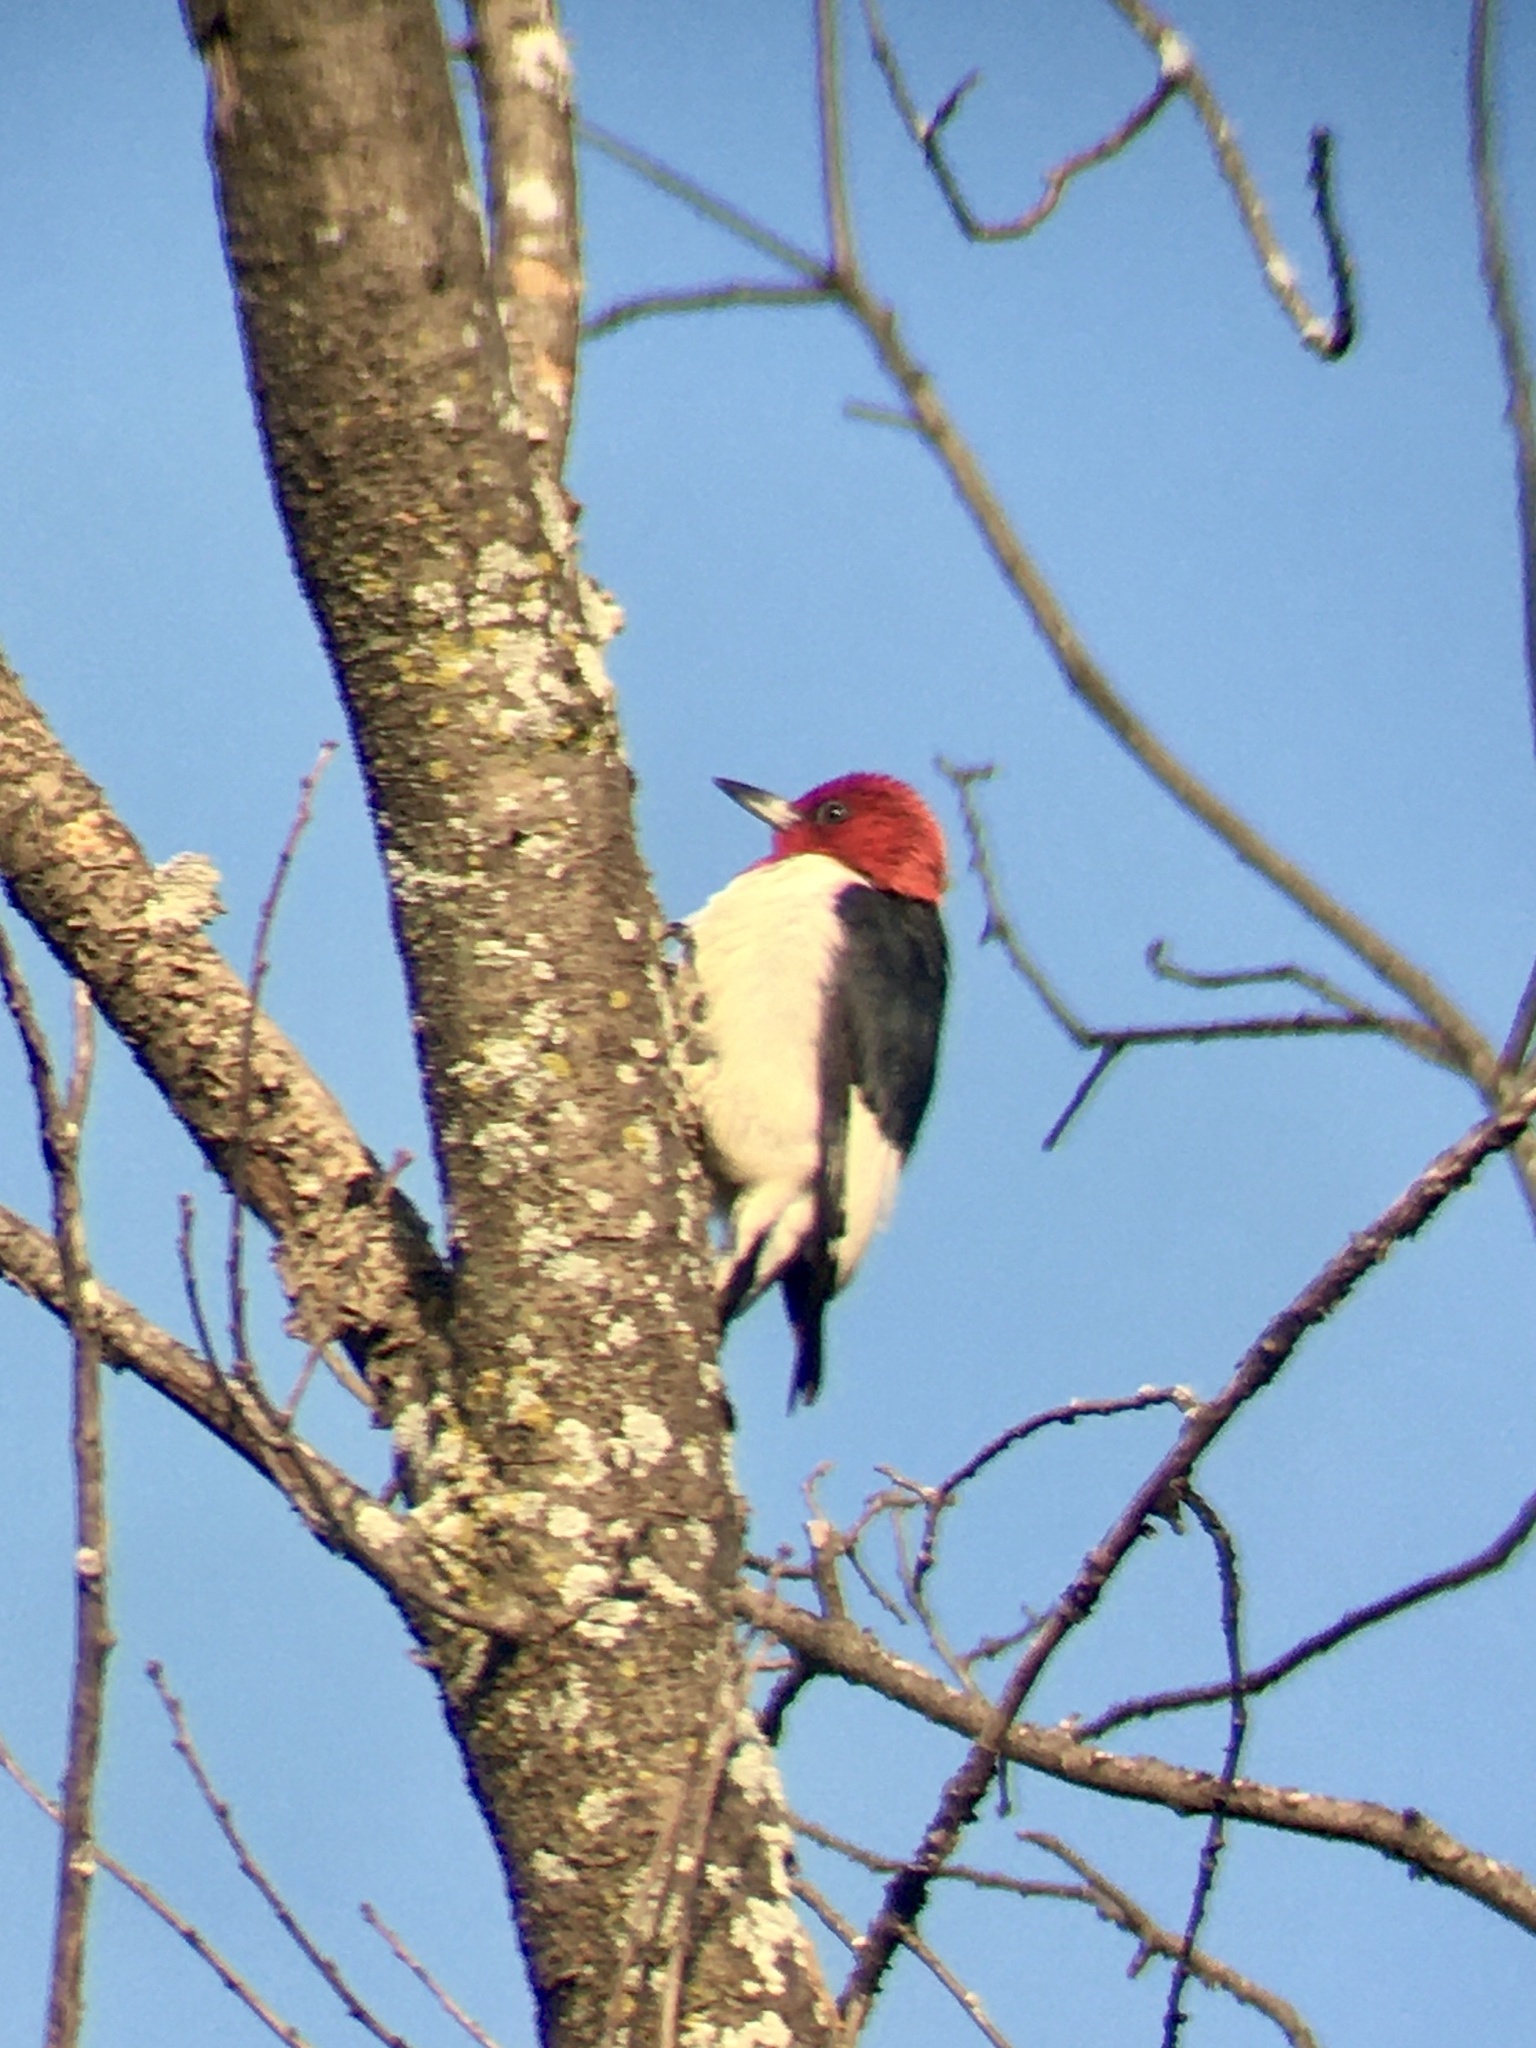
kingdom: Animalia
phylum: Chordata
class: Aves
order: Piciformes
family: Picidae
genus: Melanerpes
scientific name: Melanerpes erythrocephalus
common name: Red-headed woodpecker
